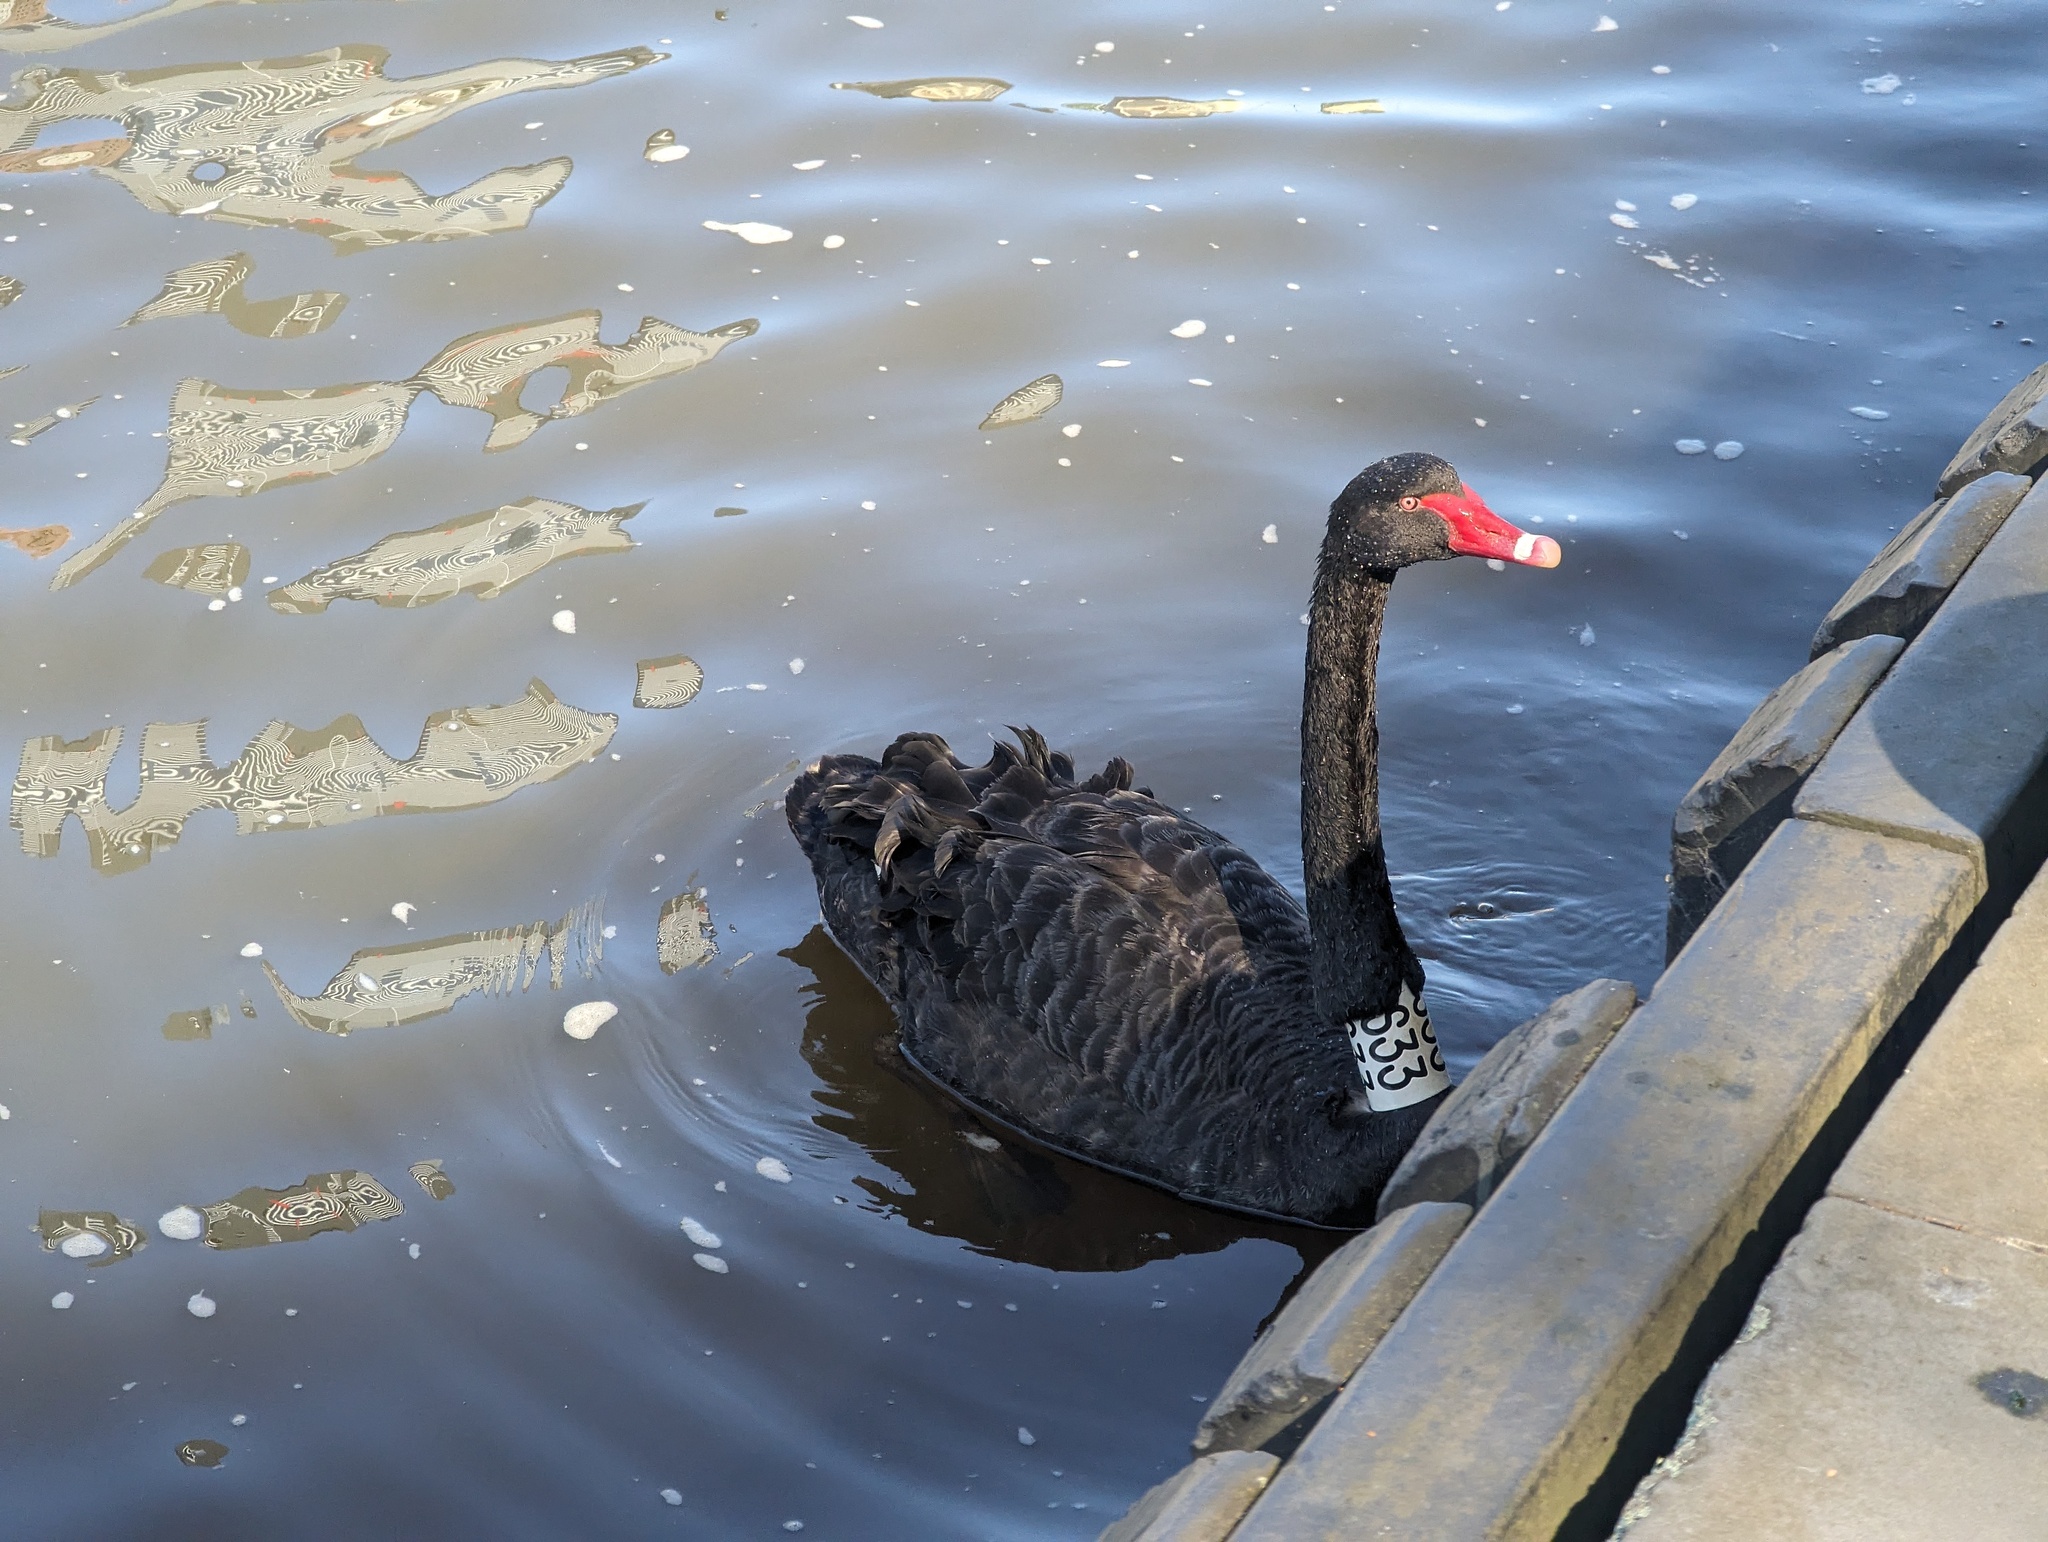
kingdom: Animalia
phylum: Chordata
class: Aves
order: Anseriformes
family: Anatidae
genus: Cygnus
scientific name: Cygnus atratus
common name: Black swan
